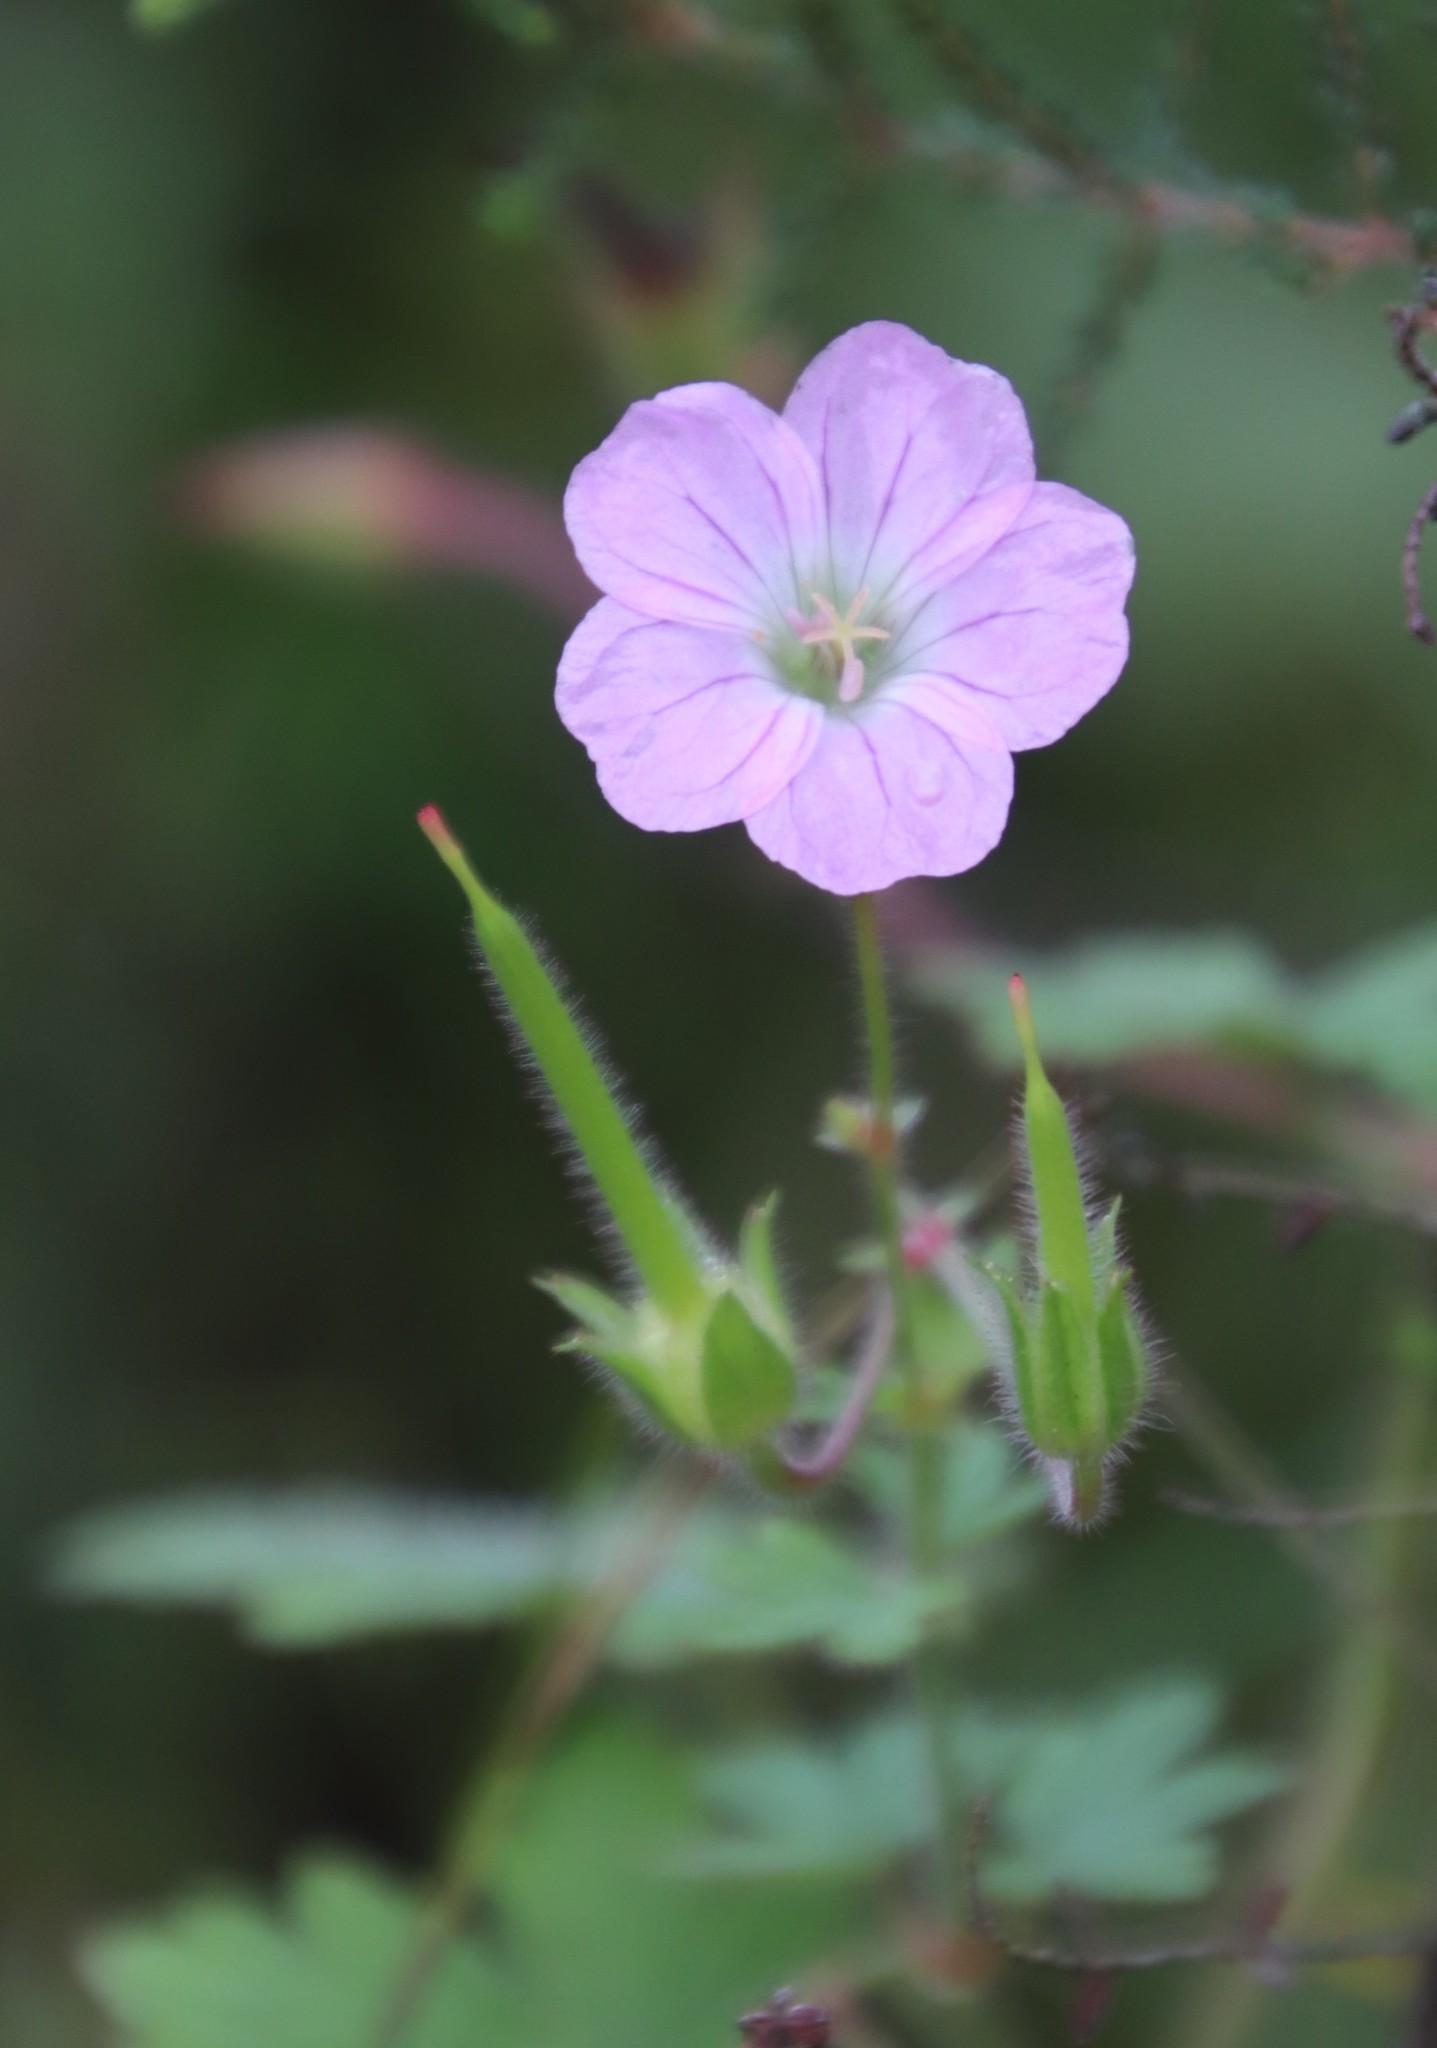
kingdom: Plantae
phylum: Tracheophyta
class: Magnoliopsida
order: Geraniales
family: Geraniaceae
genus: Geranium
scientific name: Geranium schlechteri
